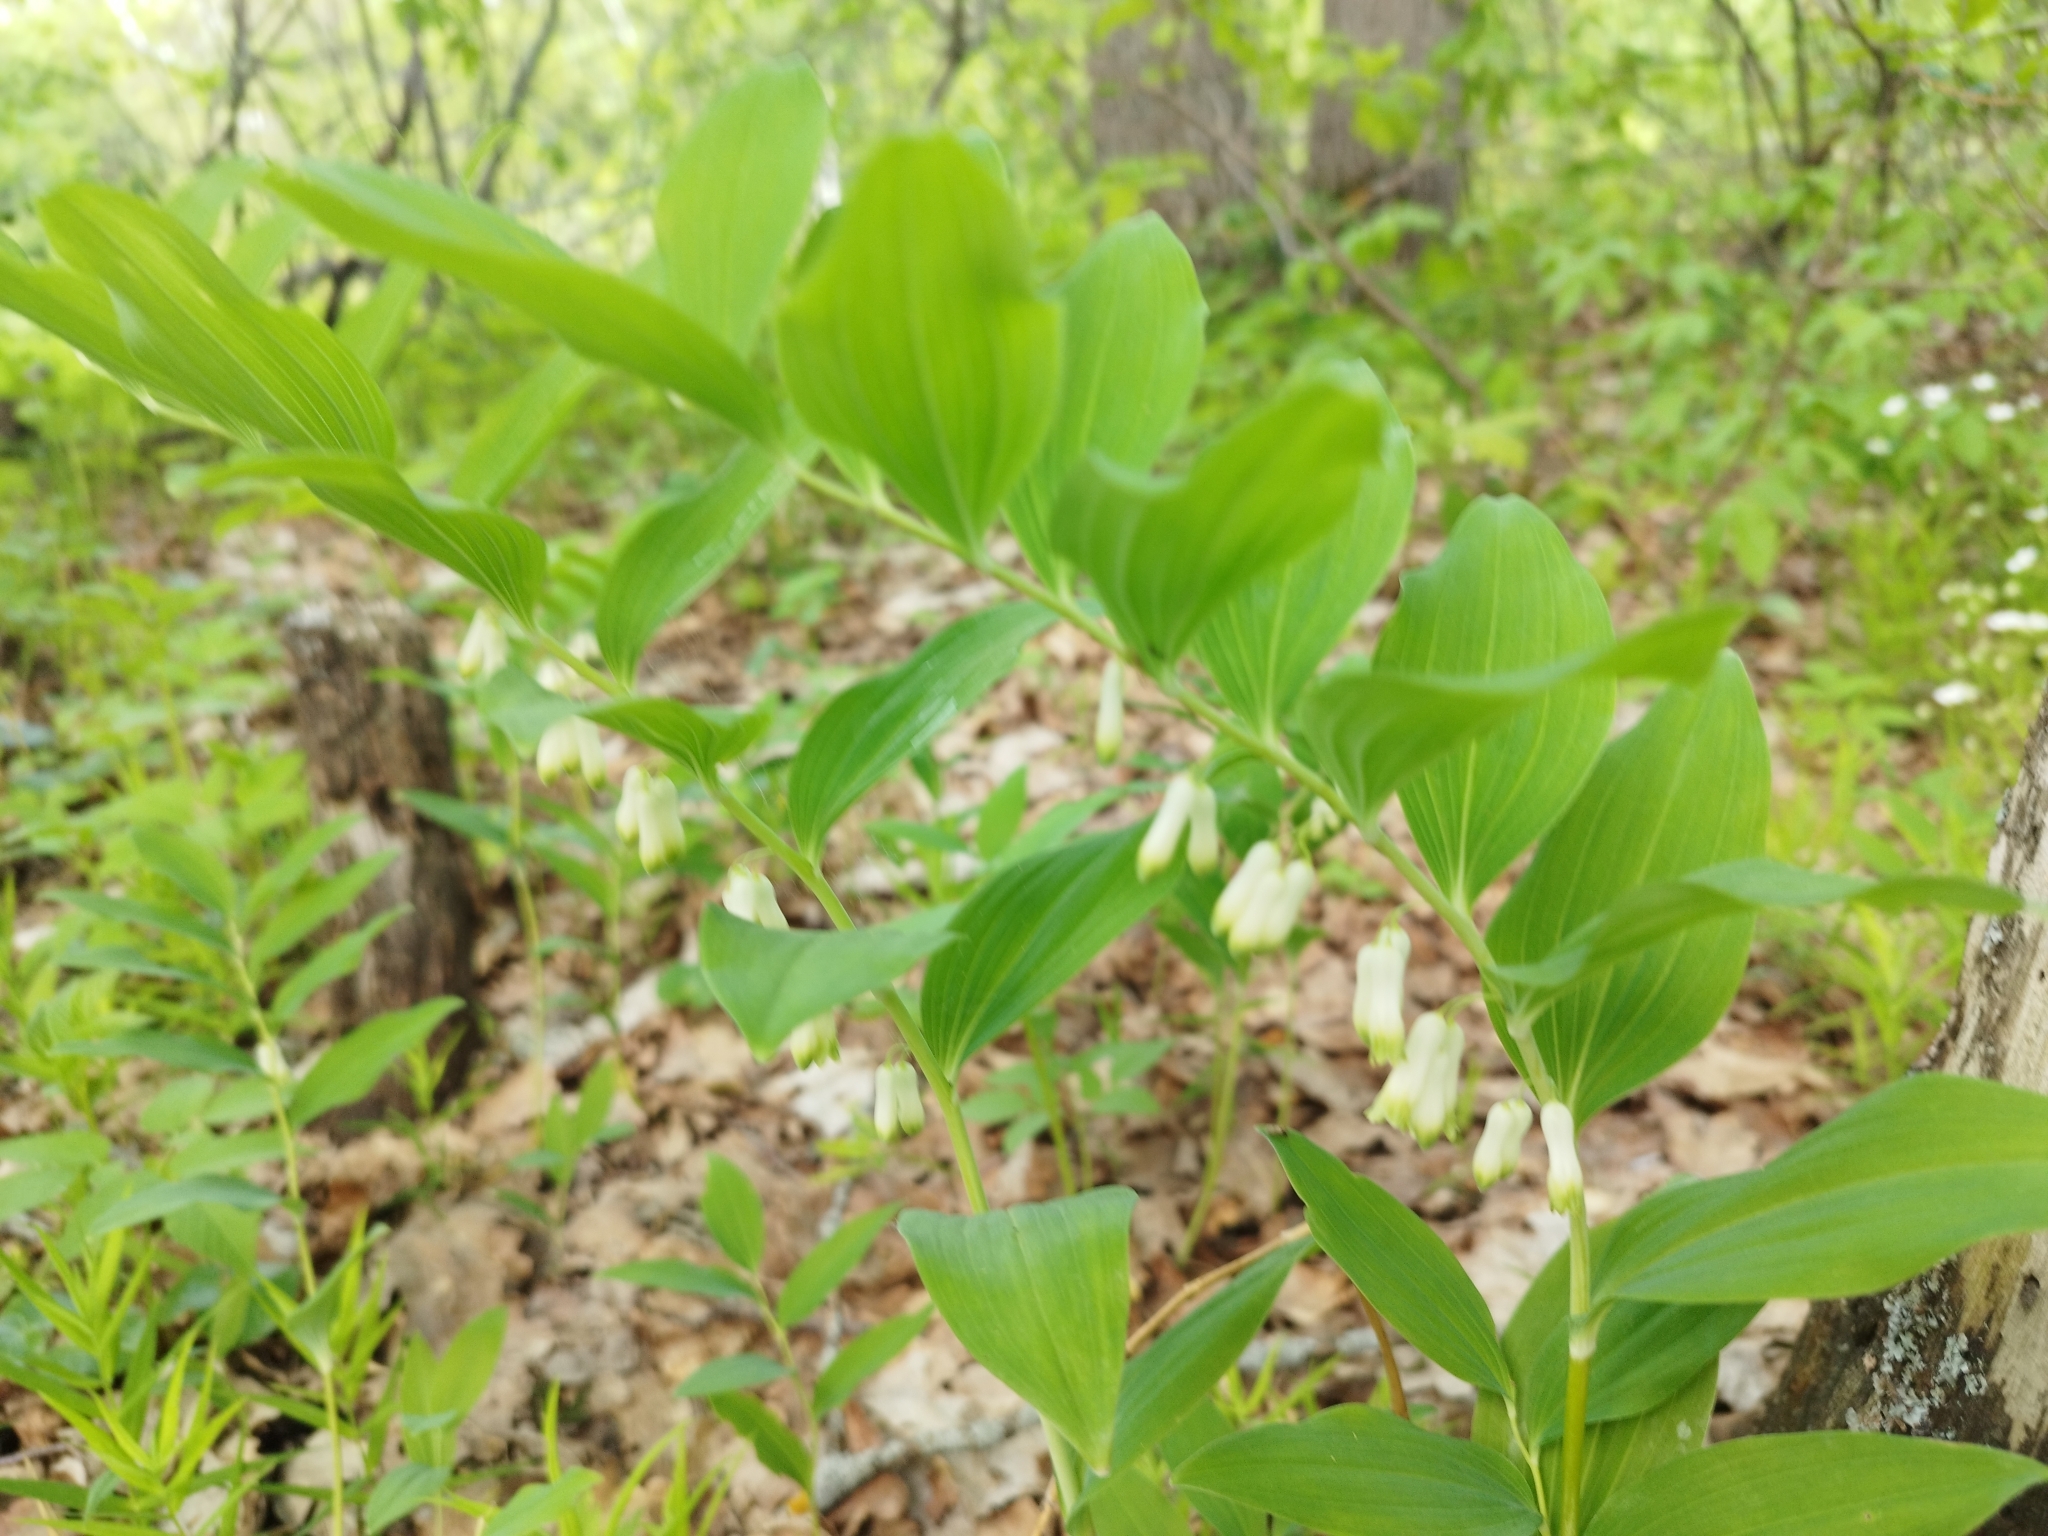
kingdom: Plantae
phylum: Tracheophyta
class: Liliopsida
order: Asparagales
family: Asparagaceae
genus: Polygonatum
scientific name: Polygonatum multiflorum
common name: Solomon's-seal
